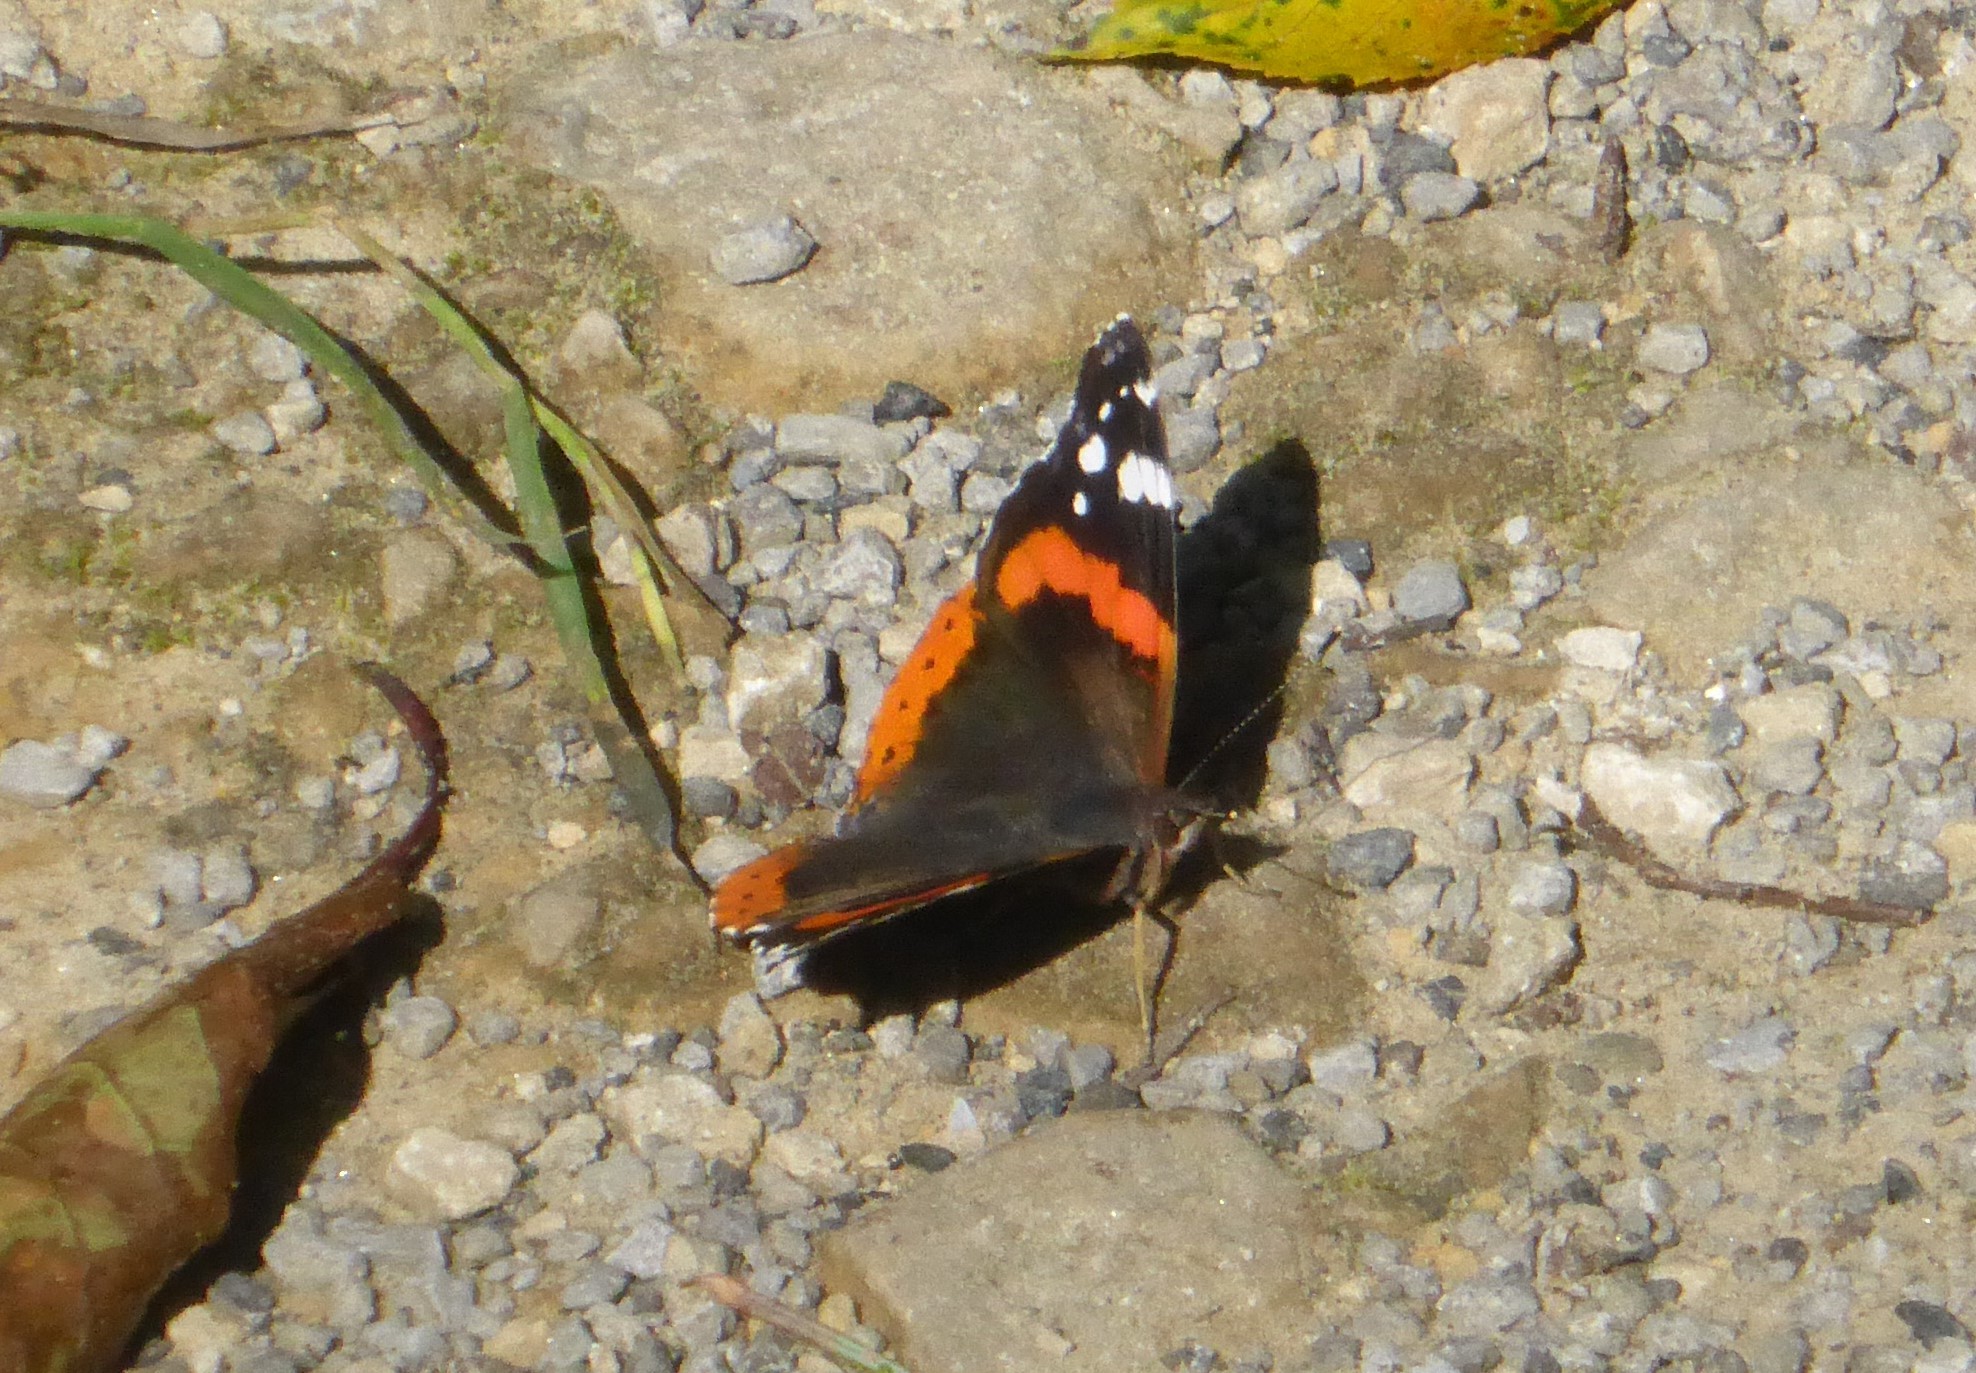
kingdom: Animalia
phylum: Arthropoda
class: Insecta
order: Lepidoptera
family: Nymphalidae
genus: Vanessa
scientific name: Vanessa atalanta
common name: Red admiral
